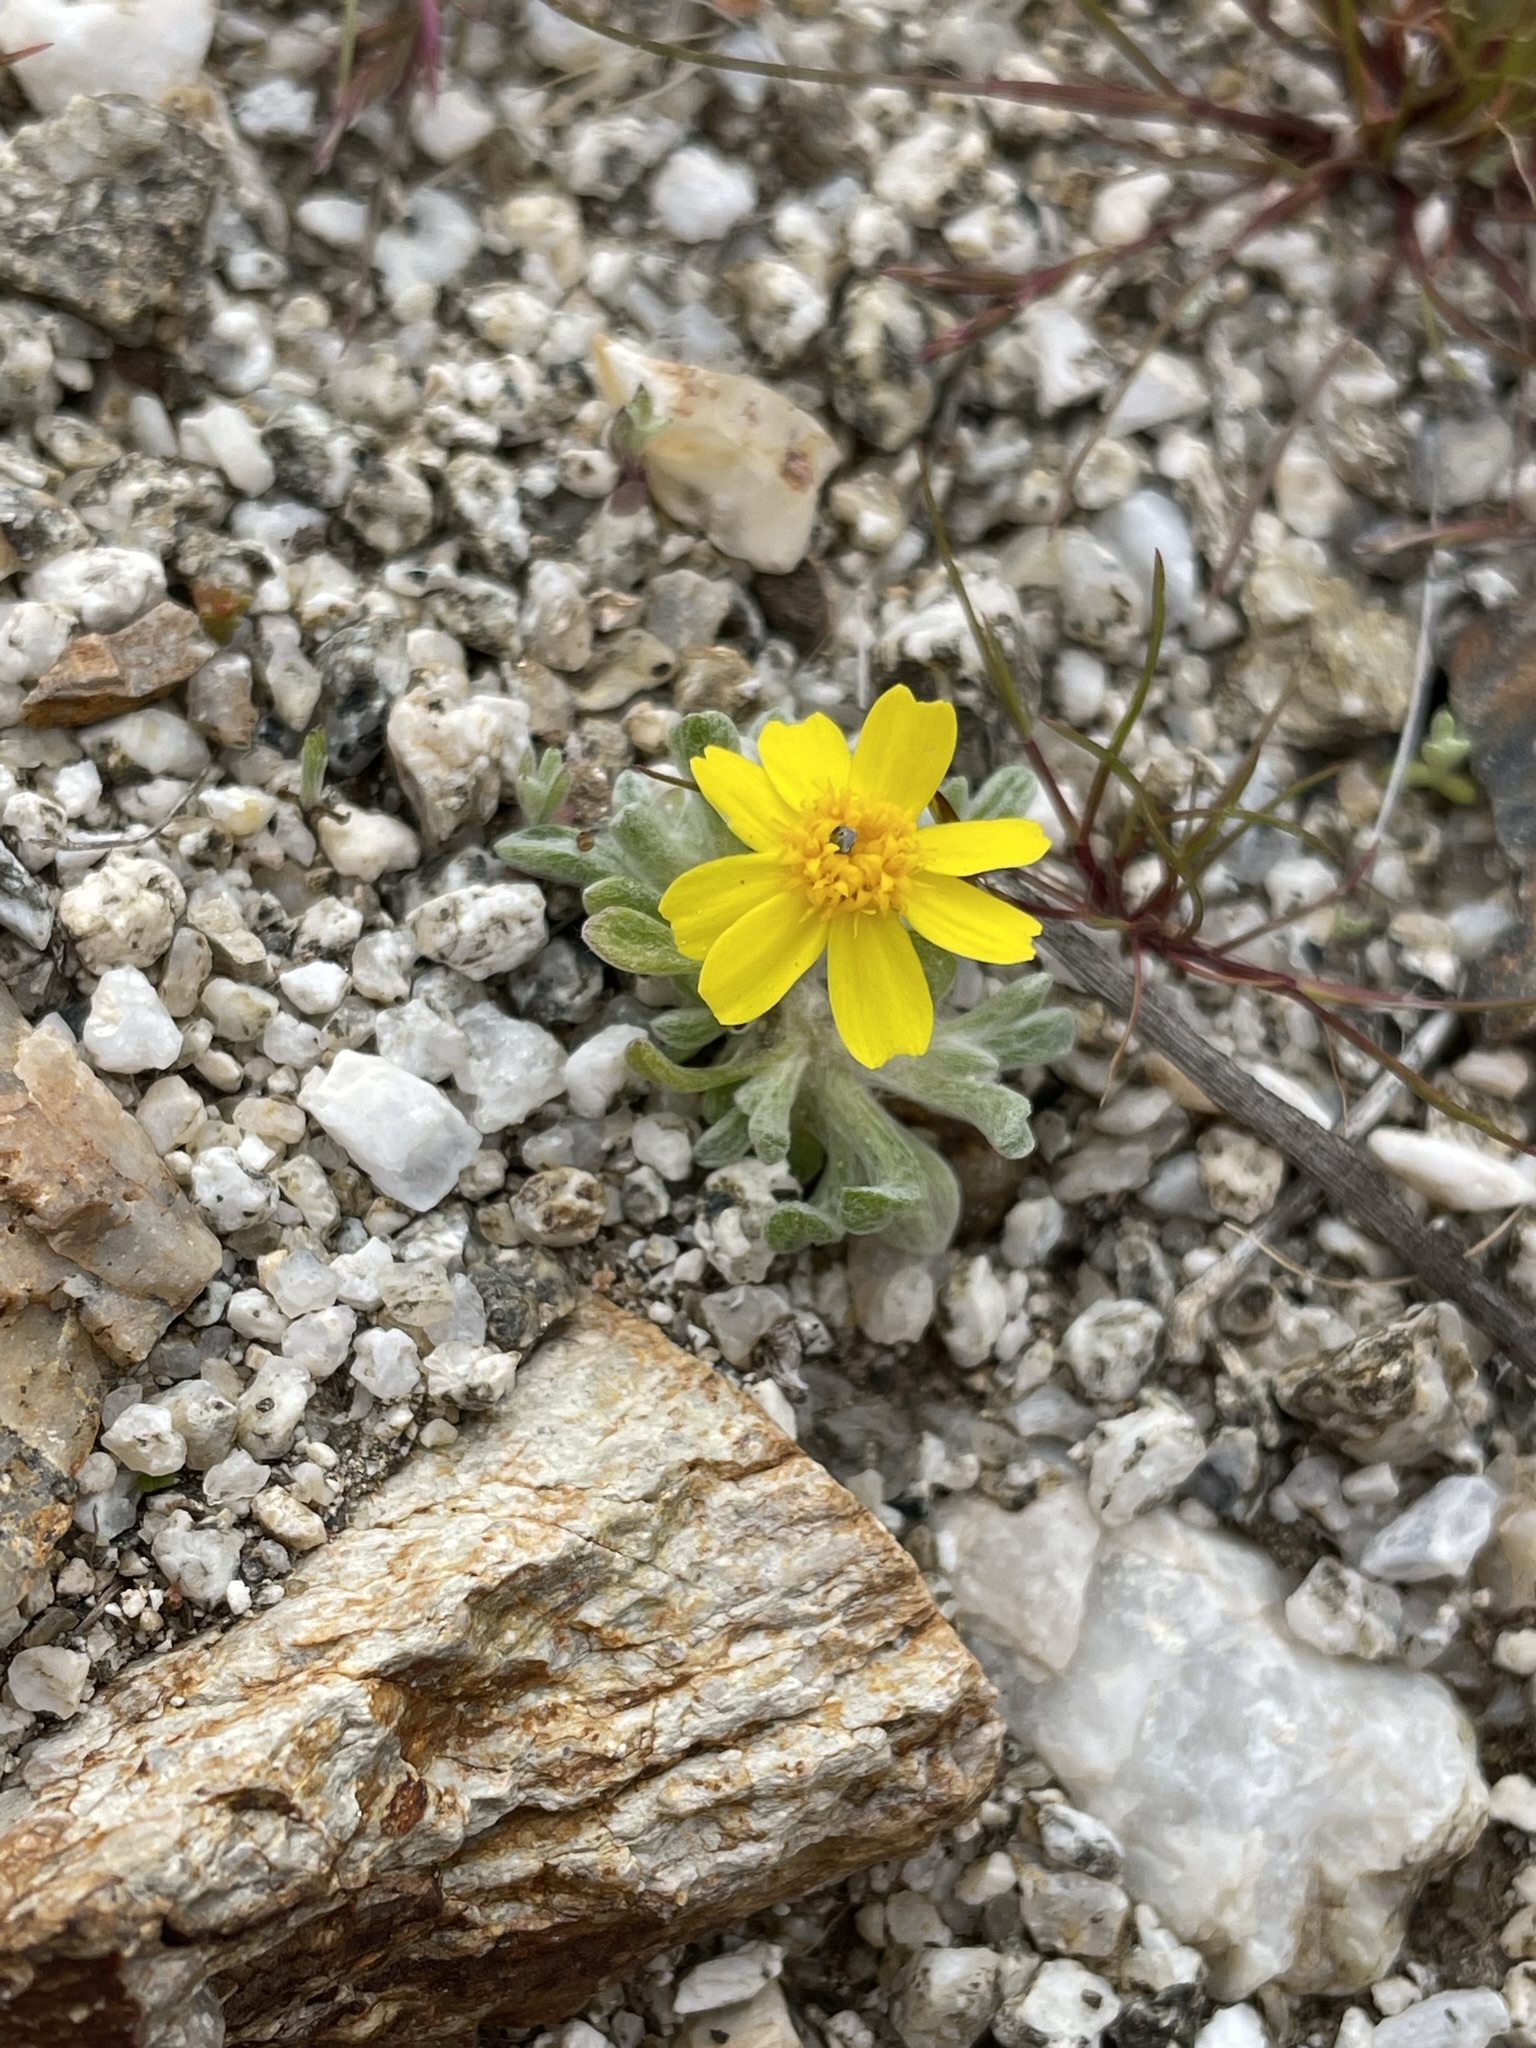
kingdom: Plantae
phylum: Tracheophyta
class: Magnoliopsida
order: Asterales
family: Asteraceae
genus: Eriophyllum
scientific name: Eriophyllum wallacei
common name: Wallace's woolly daisy
